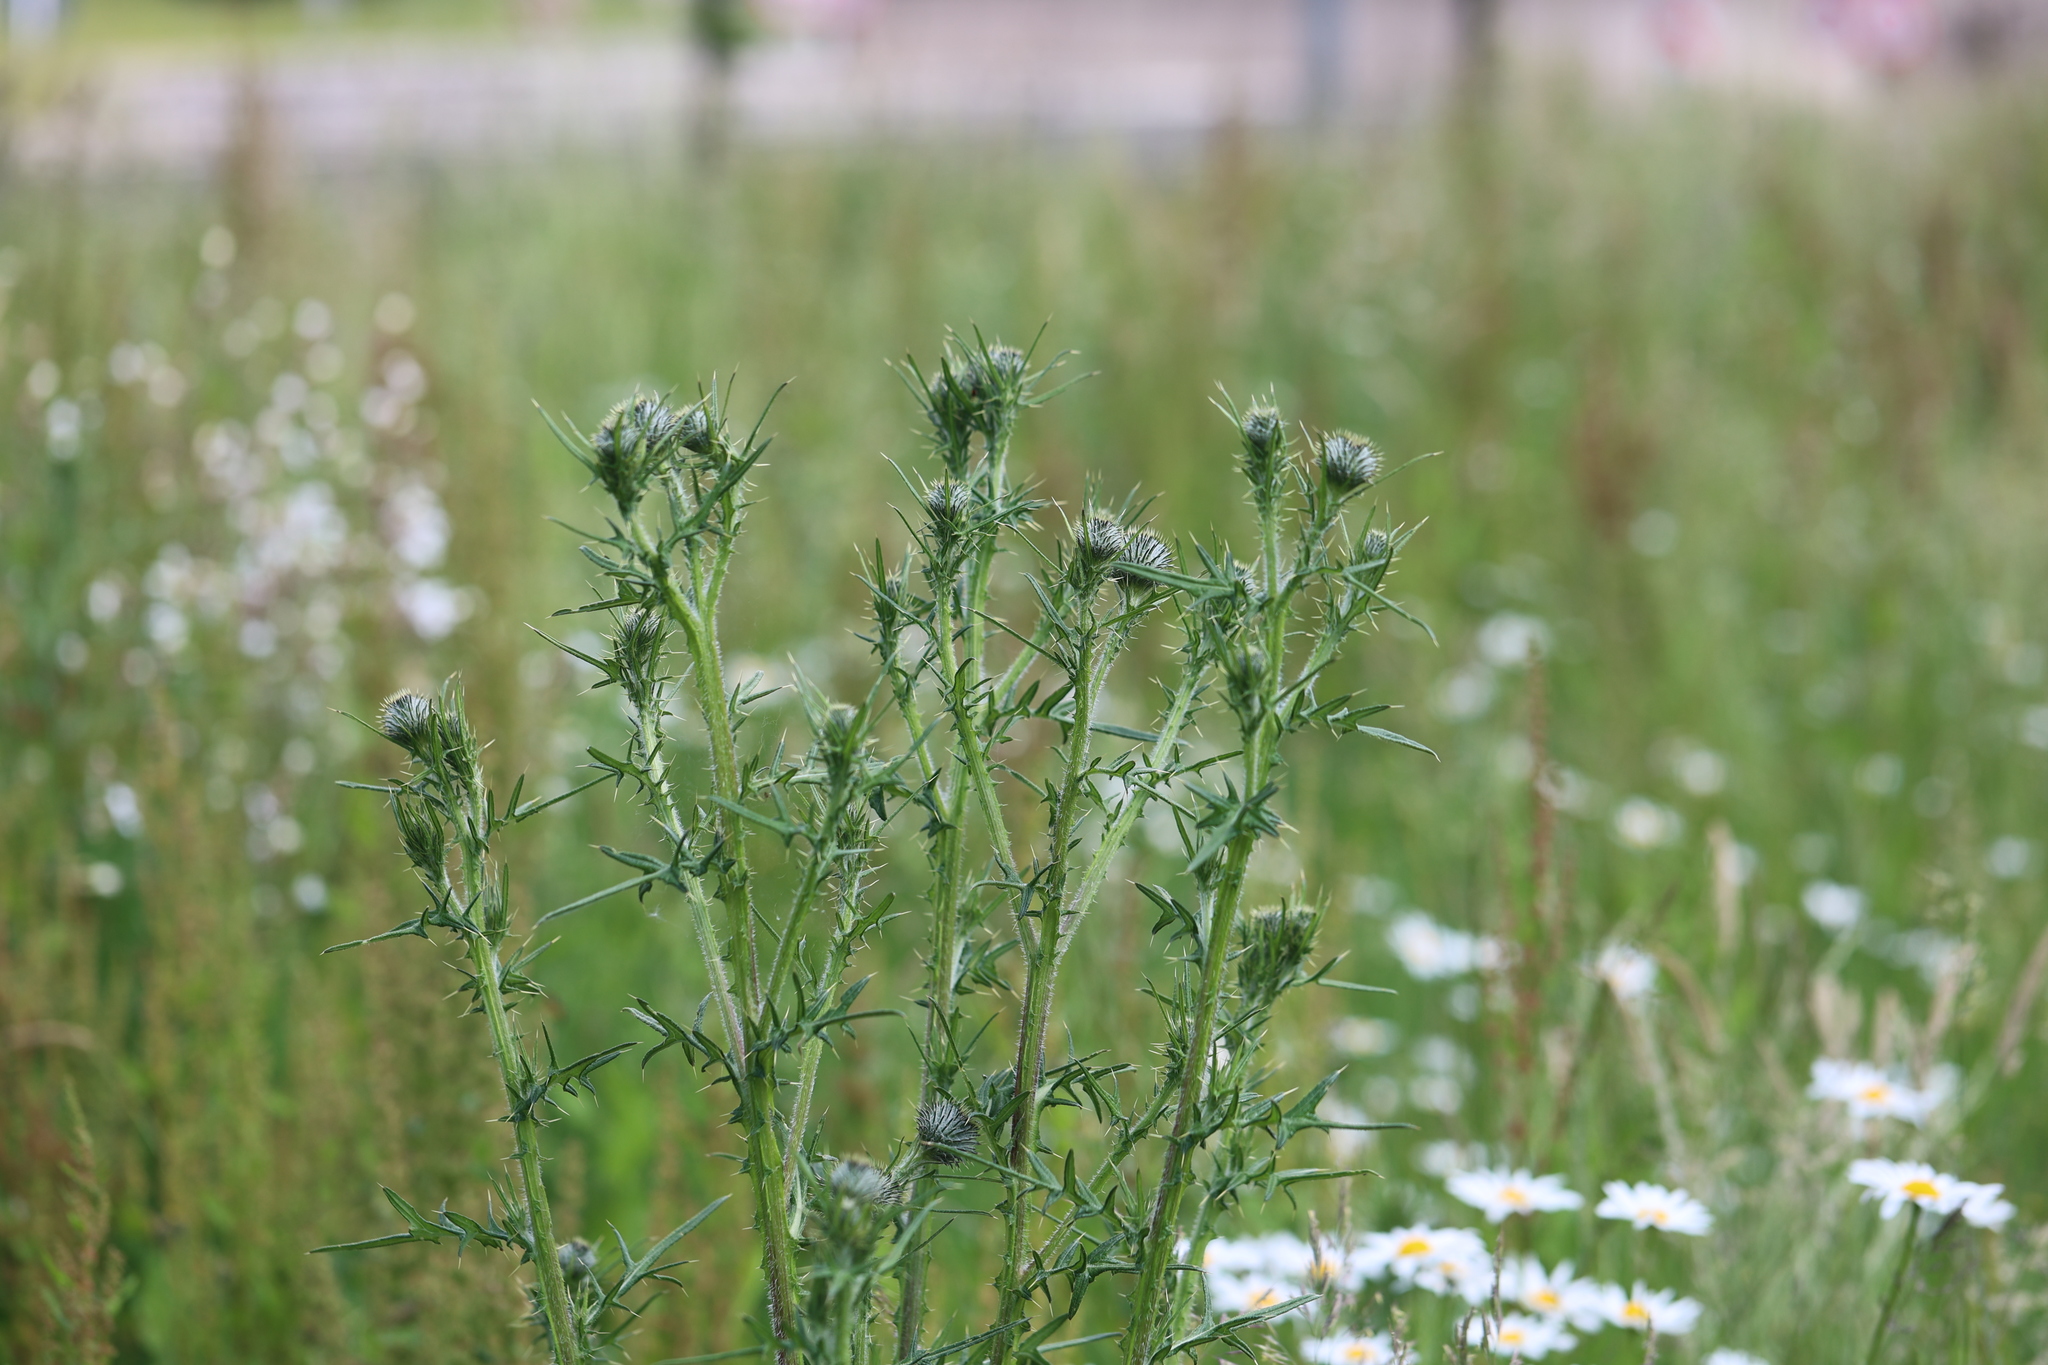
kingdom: Plantae
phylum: Tracheophyta
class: Magnoliopsida
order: Asterales
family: Asteraceae
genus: Cirsium
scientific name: Cirsium vulgare
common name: Bull thistle
